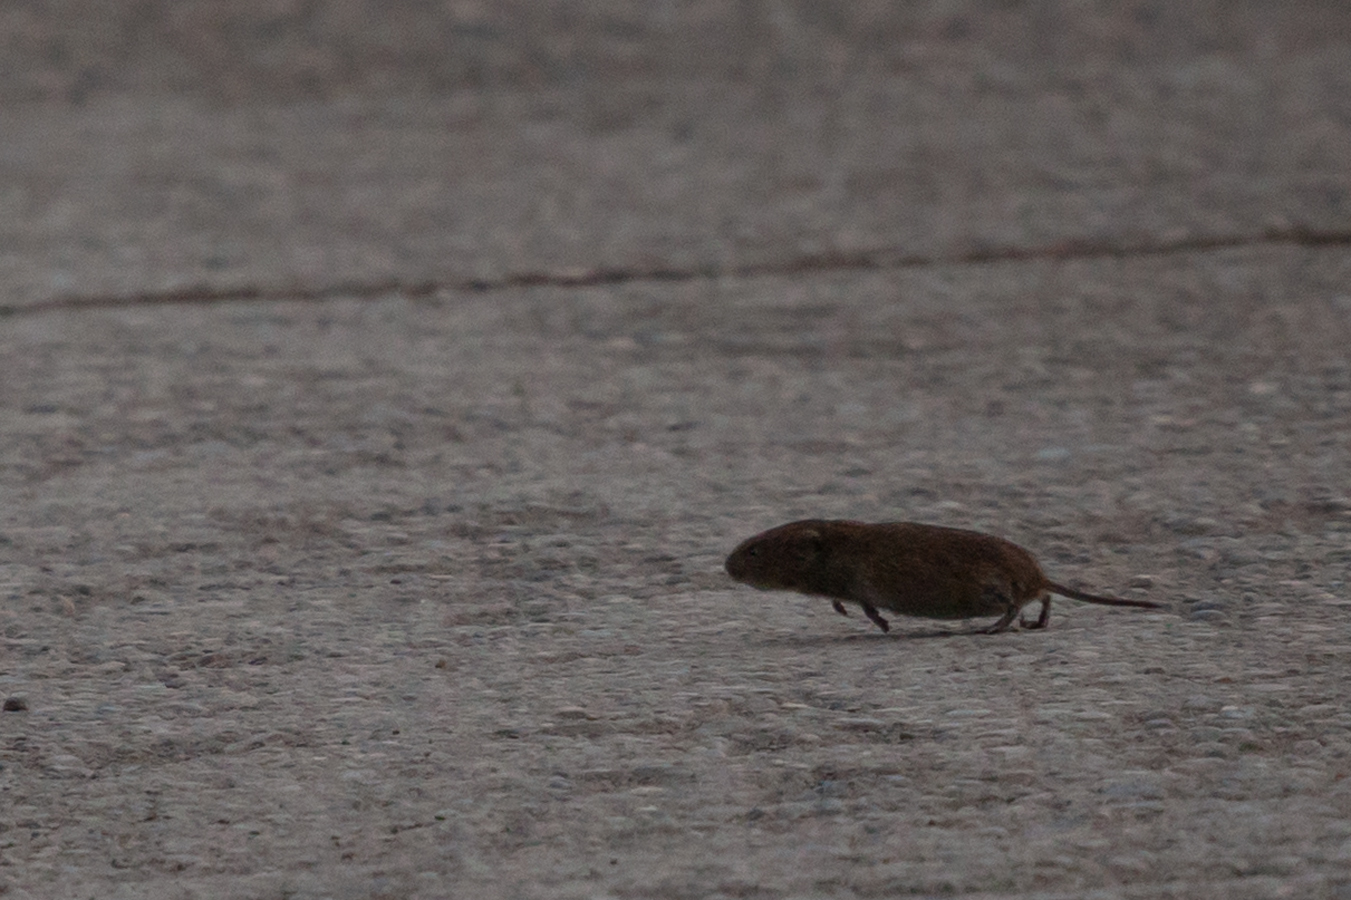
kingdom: Animalia
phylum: Chordata
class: Mammalia
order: Rodentia
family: Cricetidae
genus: Microtus
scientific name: Microtus oeconomus
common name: Tundra vole
